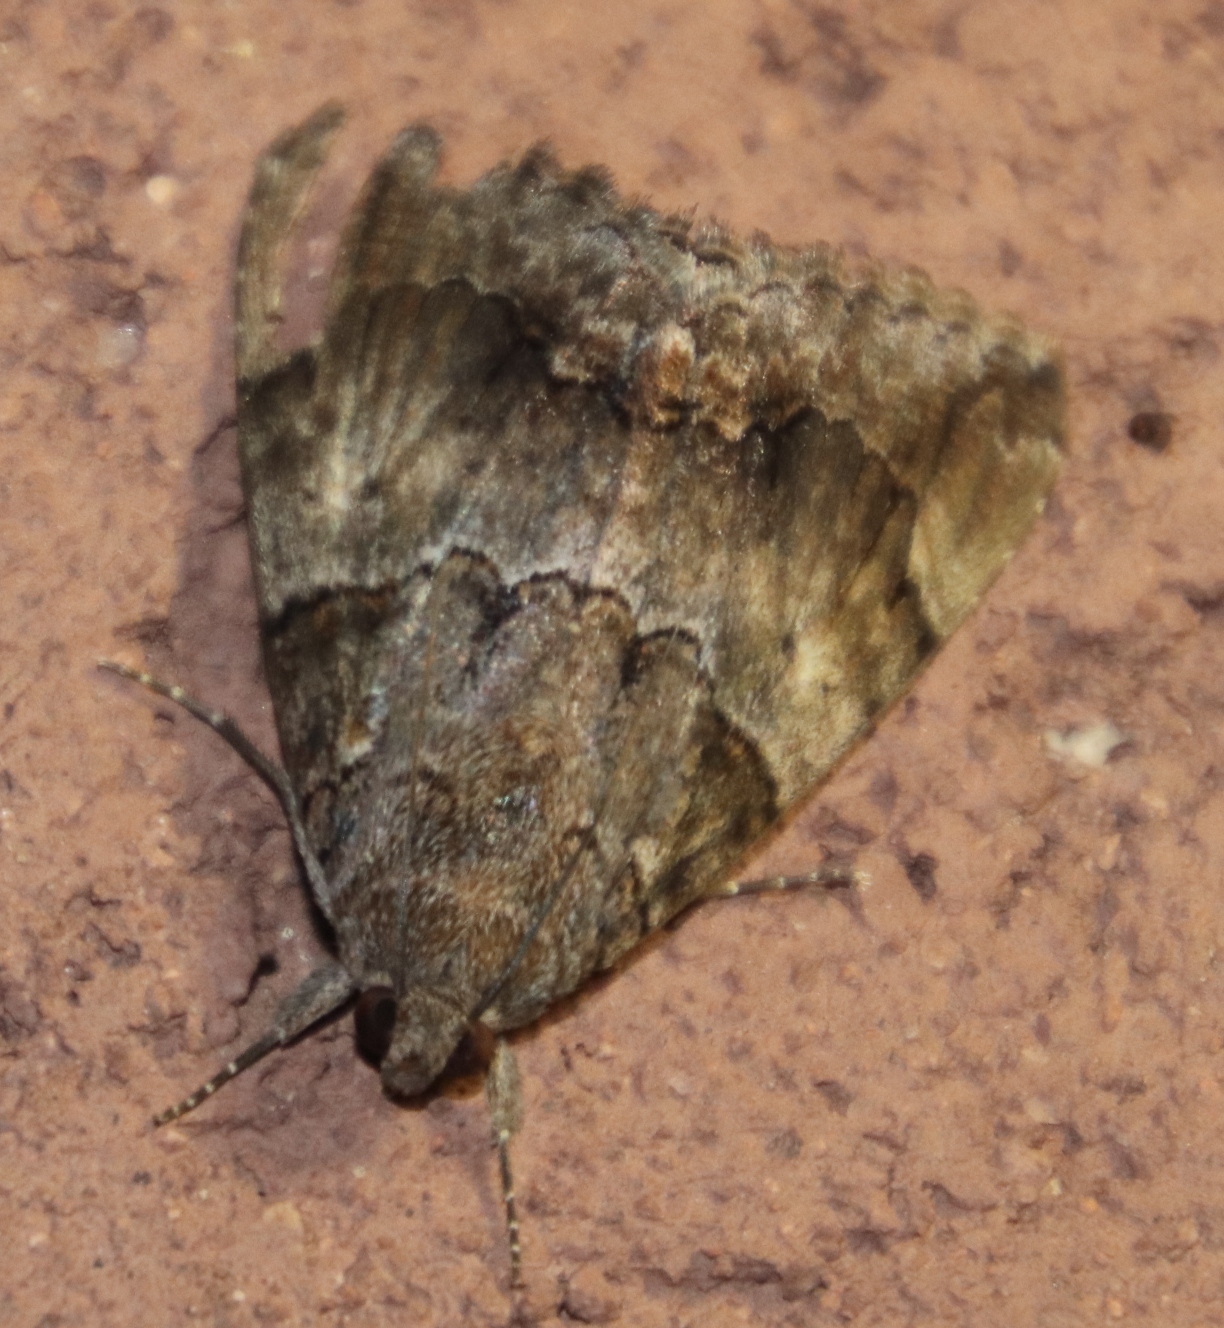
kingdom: Animalia
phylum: Arthropoda
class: Insecta
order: Lepidoptera
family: Erebidae
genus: Achaea
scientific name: Achaea catella
